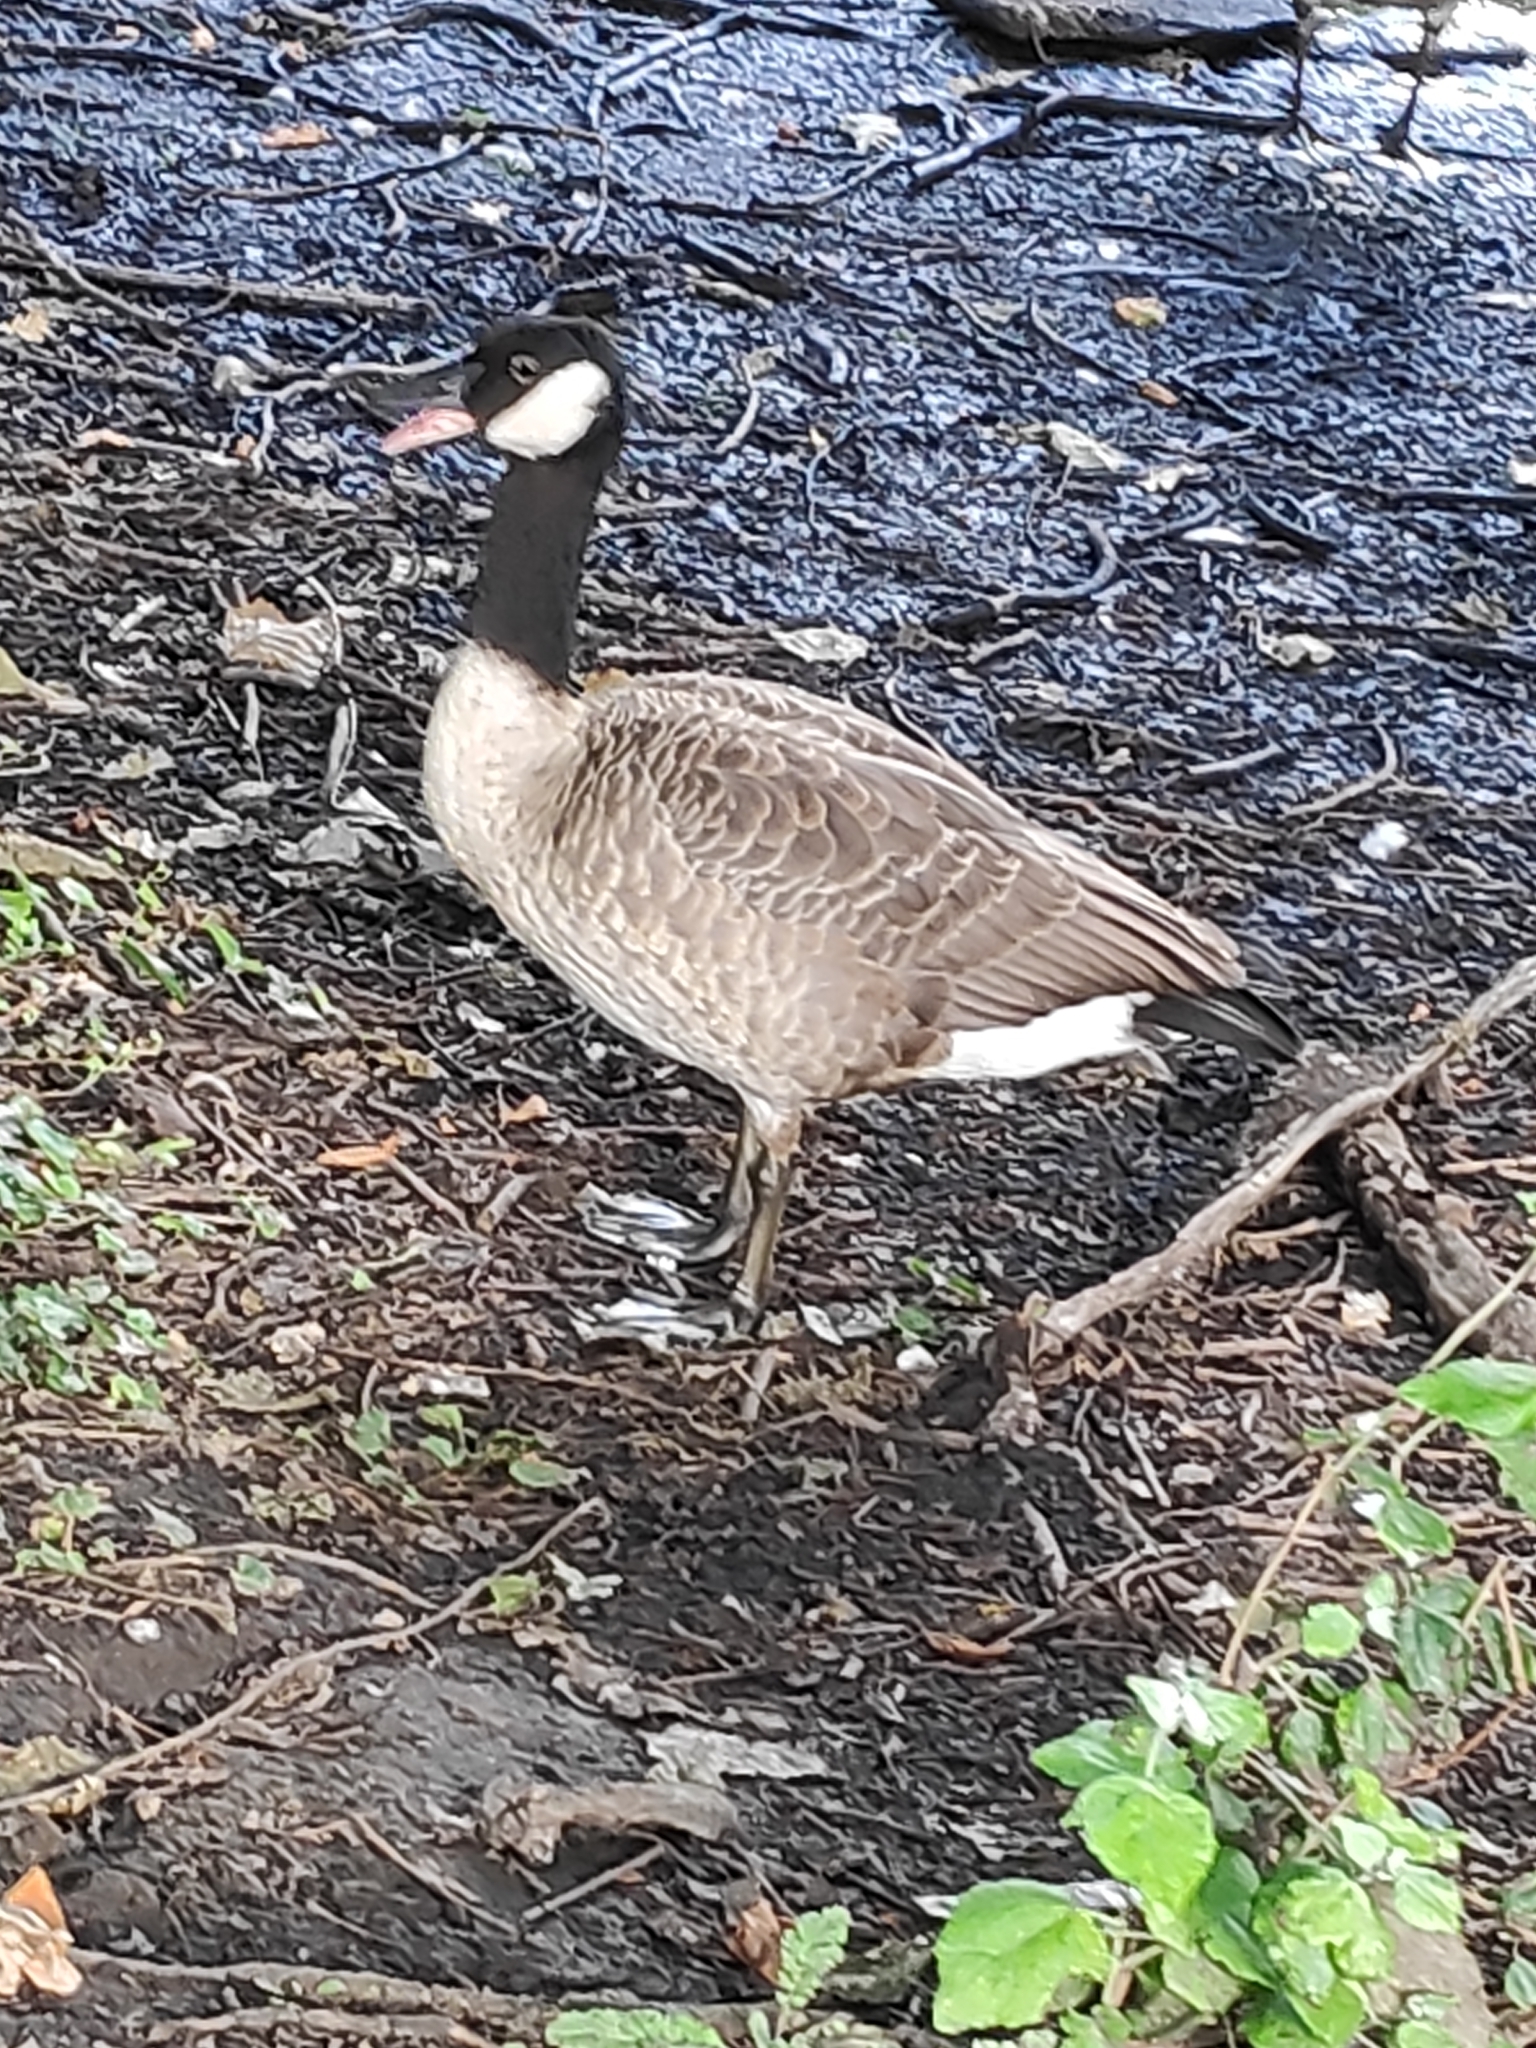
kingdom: Animalia
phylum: Chordata
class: Aves
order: Anseriformes
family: Anatidae
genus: Branta
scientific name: Branta canadensis
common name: Canada goose
